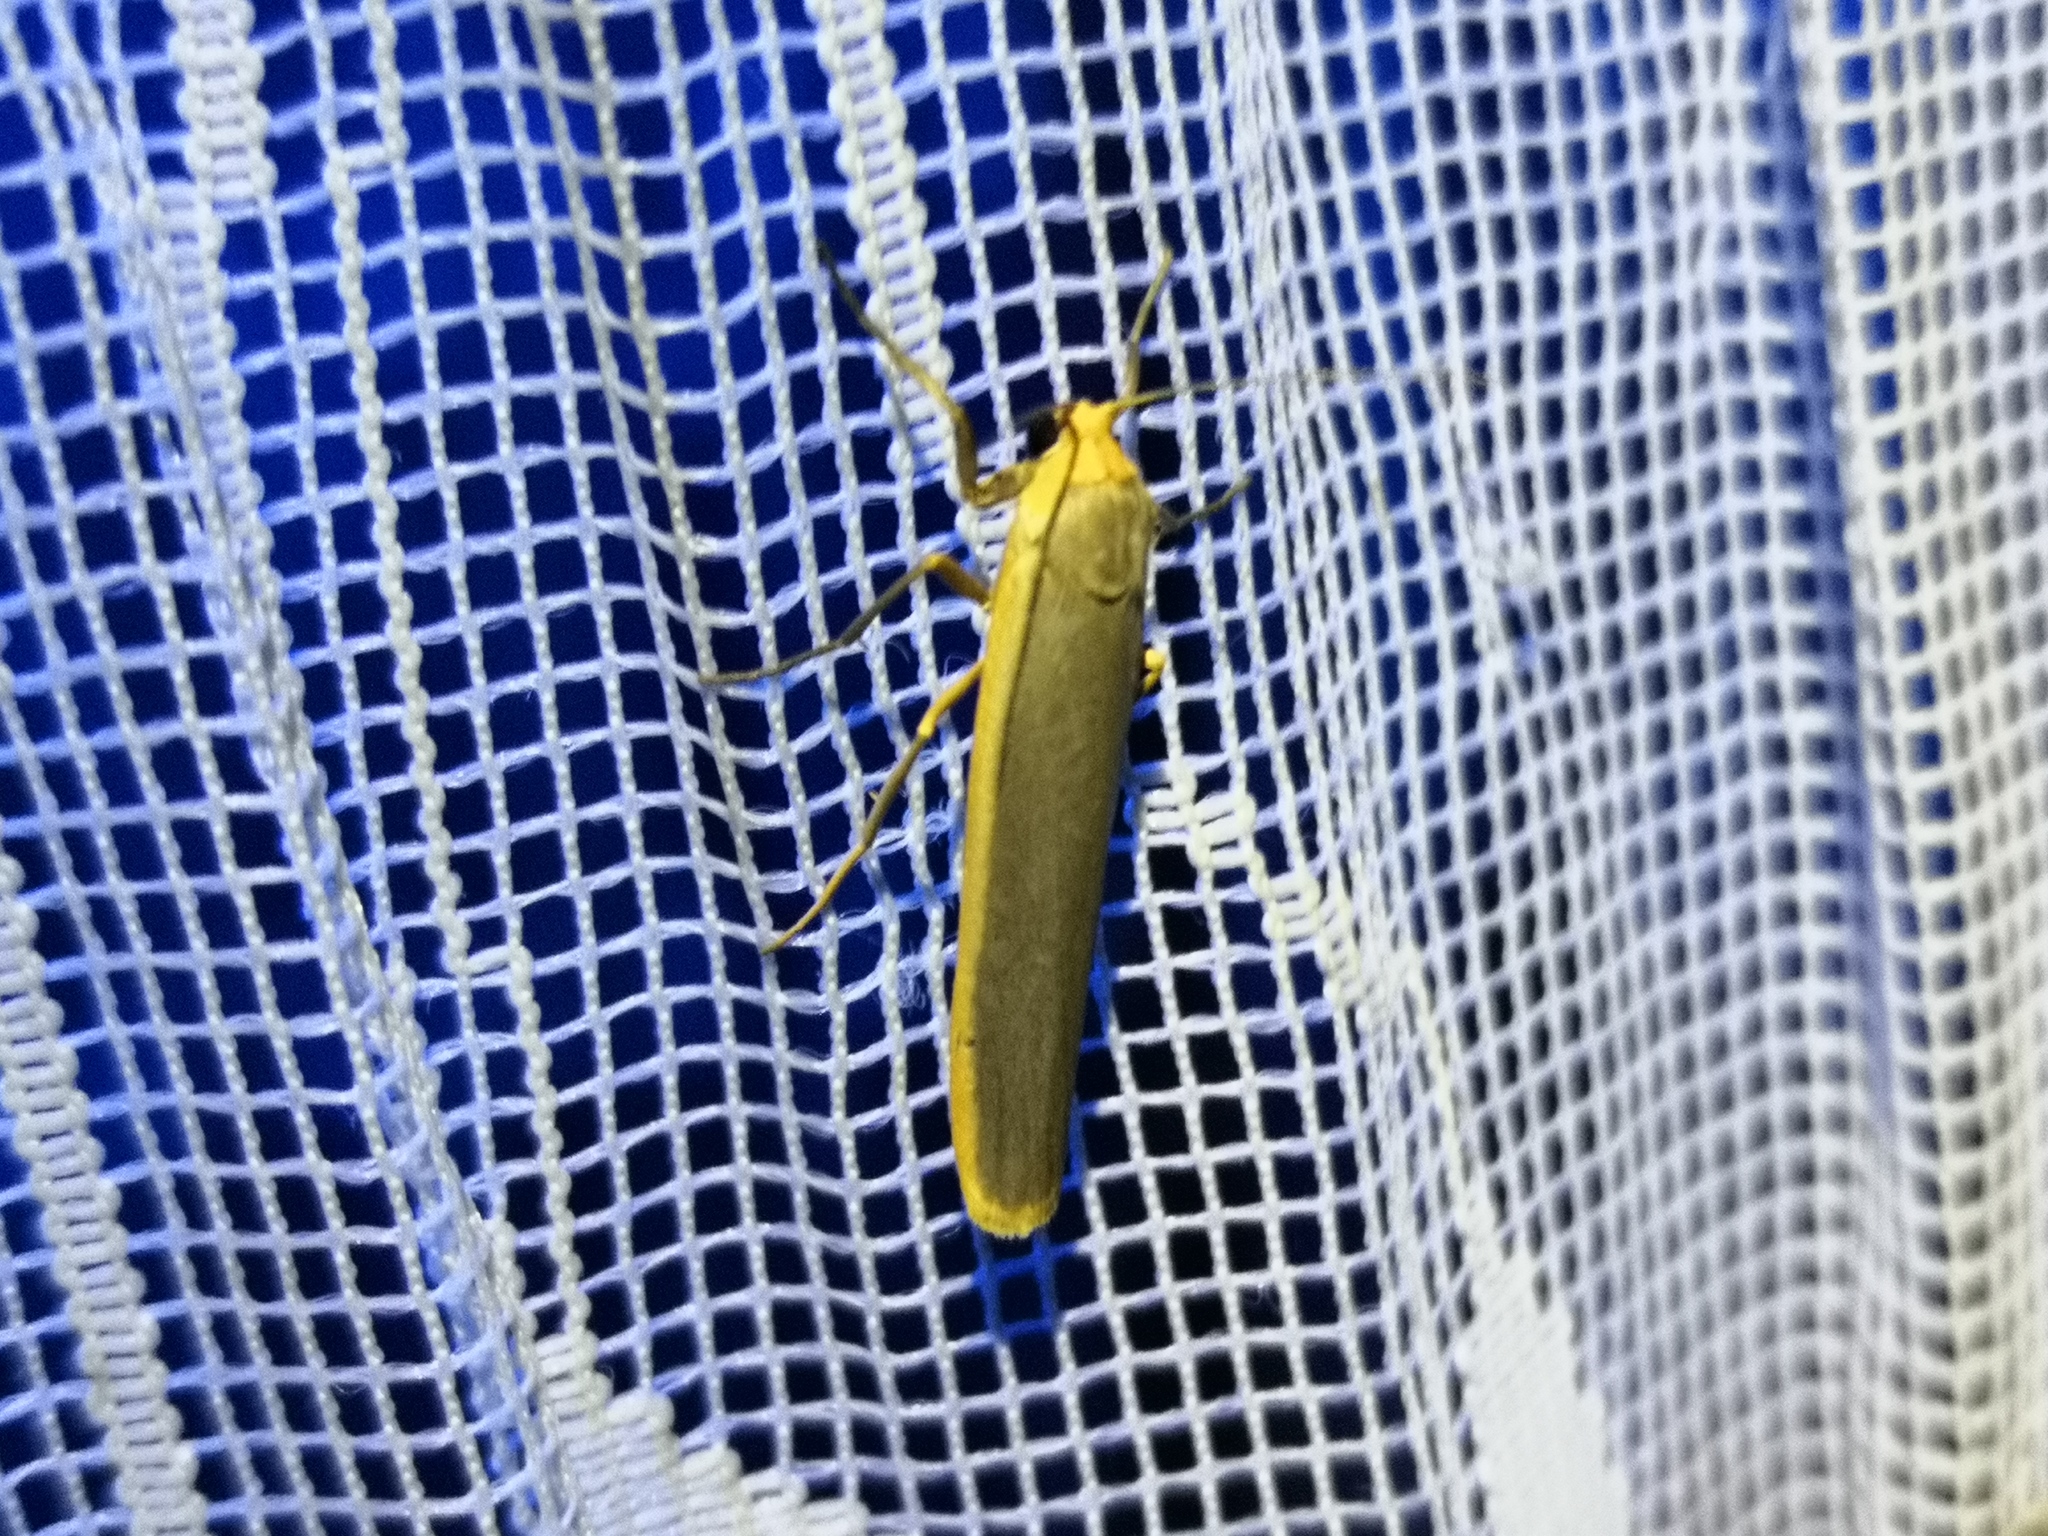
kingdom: Animalia
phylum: Arthropoda
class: Insecta
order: Lepidoptera
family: Erebidae
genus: Manulea
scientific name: Manulea complana
